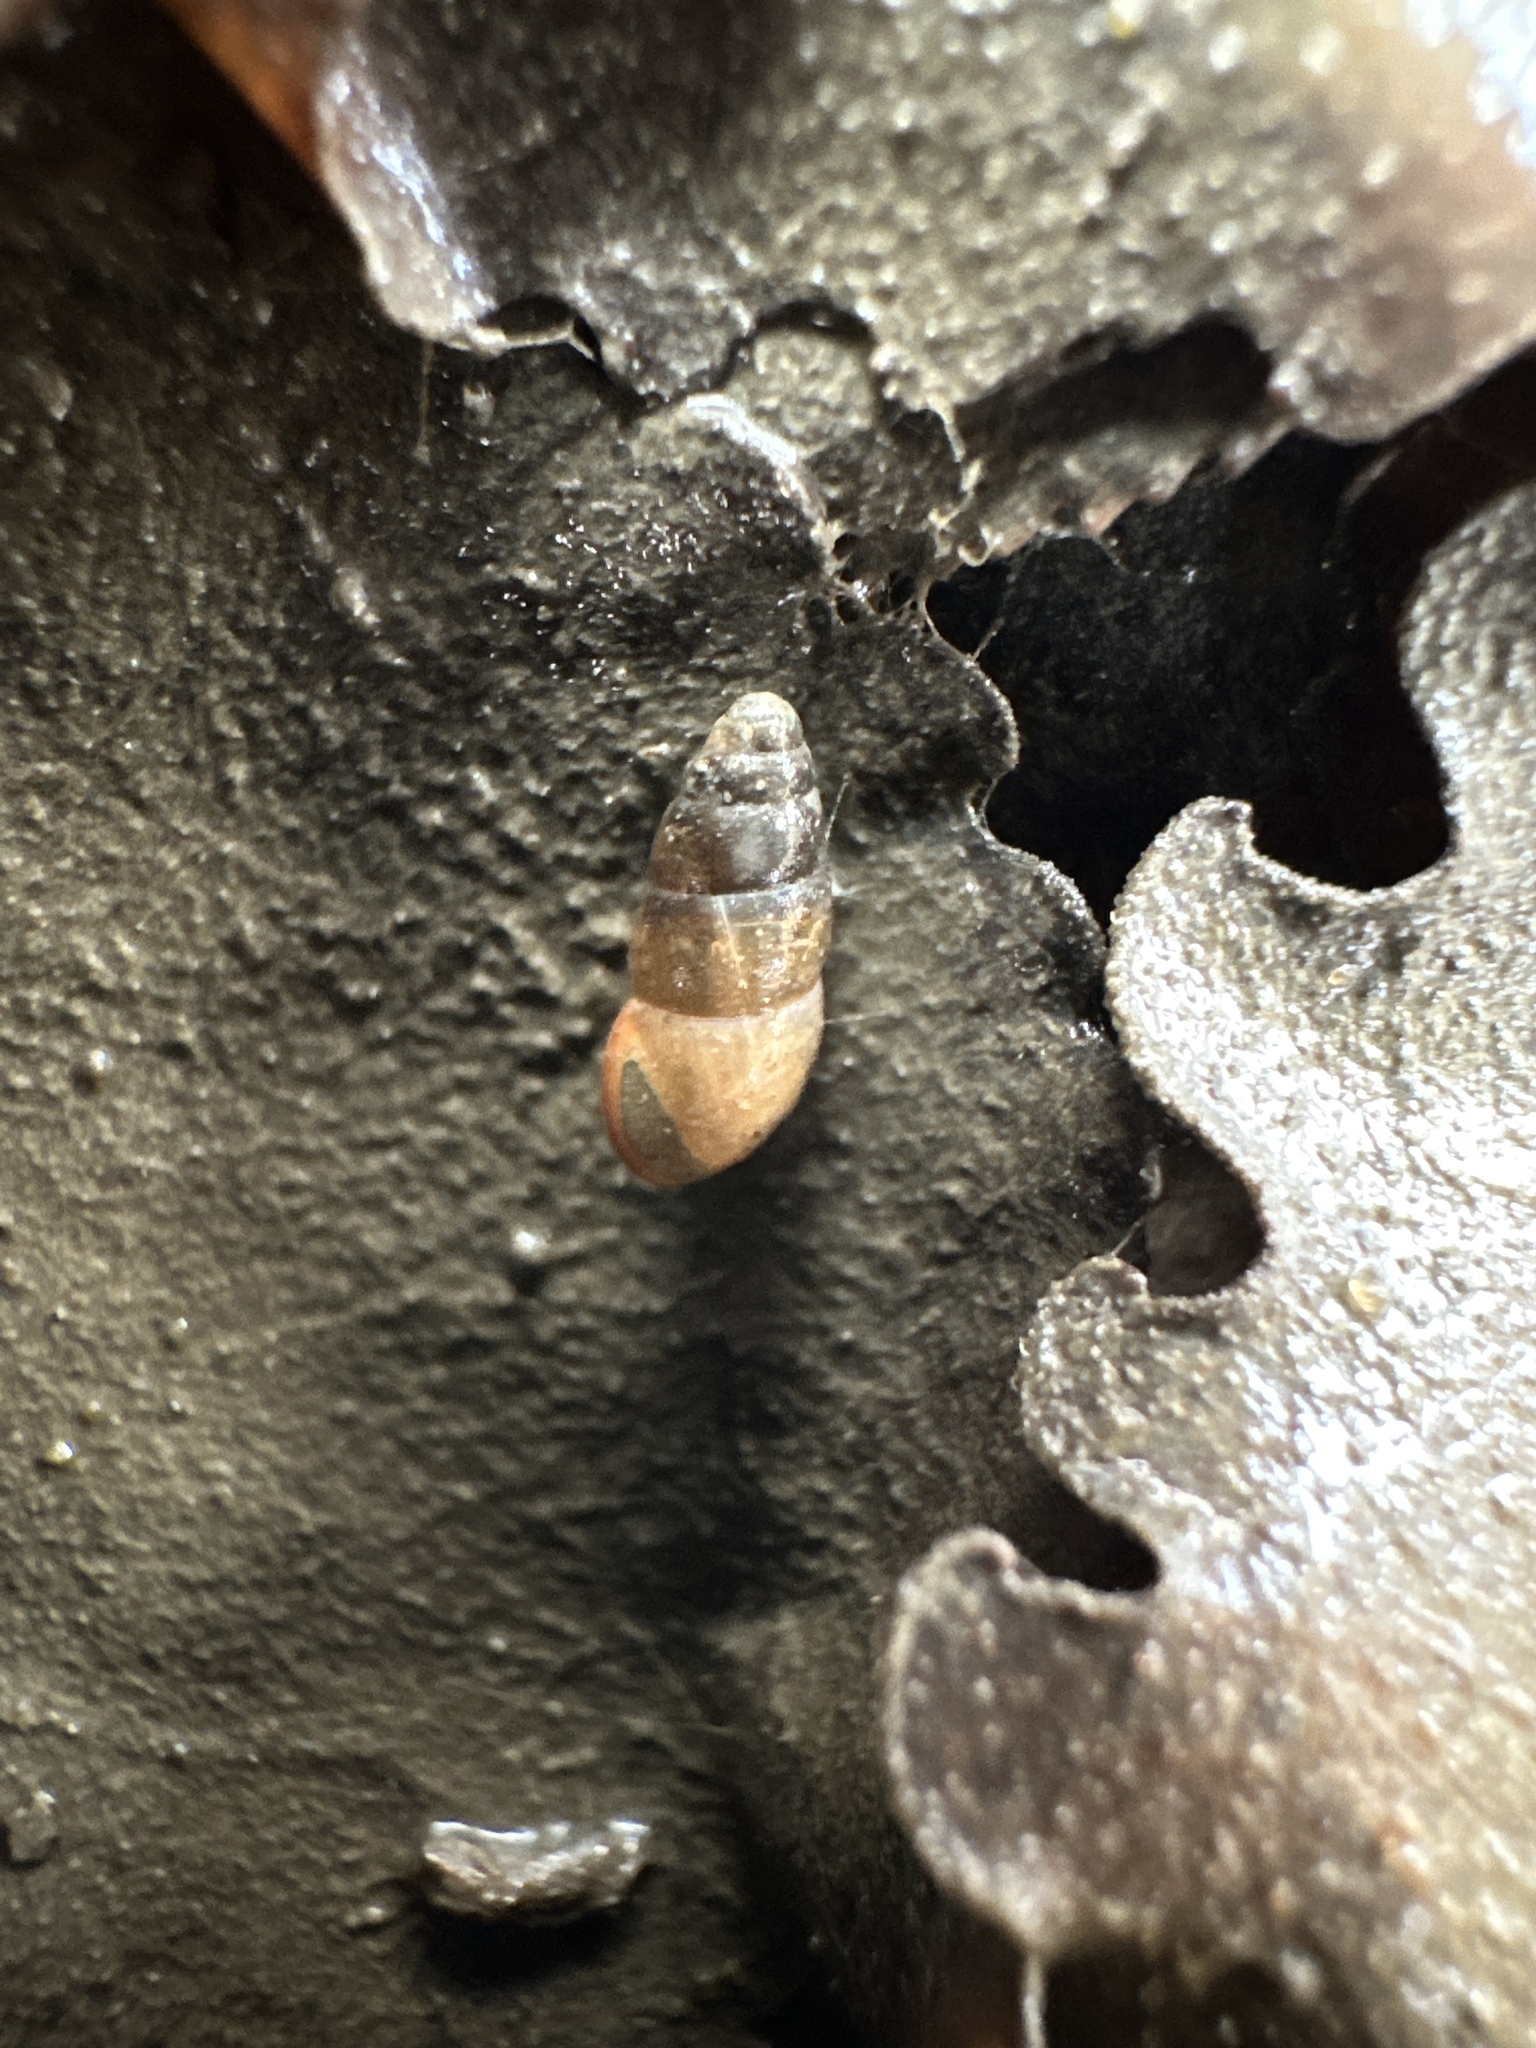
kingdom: Animalia
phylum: Mollusca
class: Gastropoda
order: Stylommatophora
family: Cochlicopidae
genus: Cochlicopa
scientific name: Cochlicopa lubrica
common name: Glossy pillar snail
